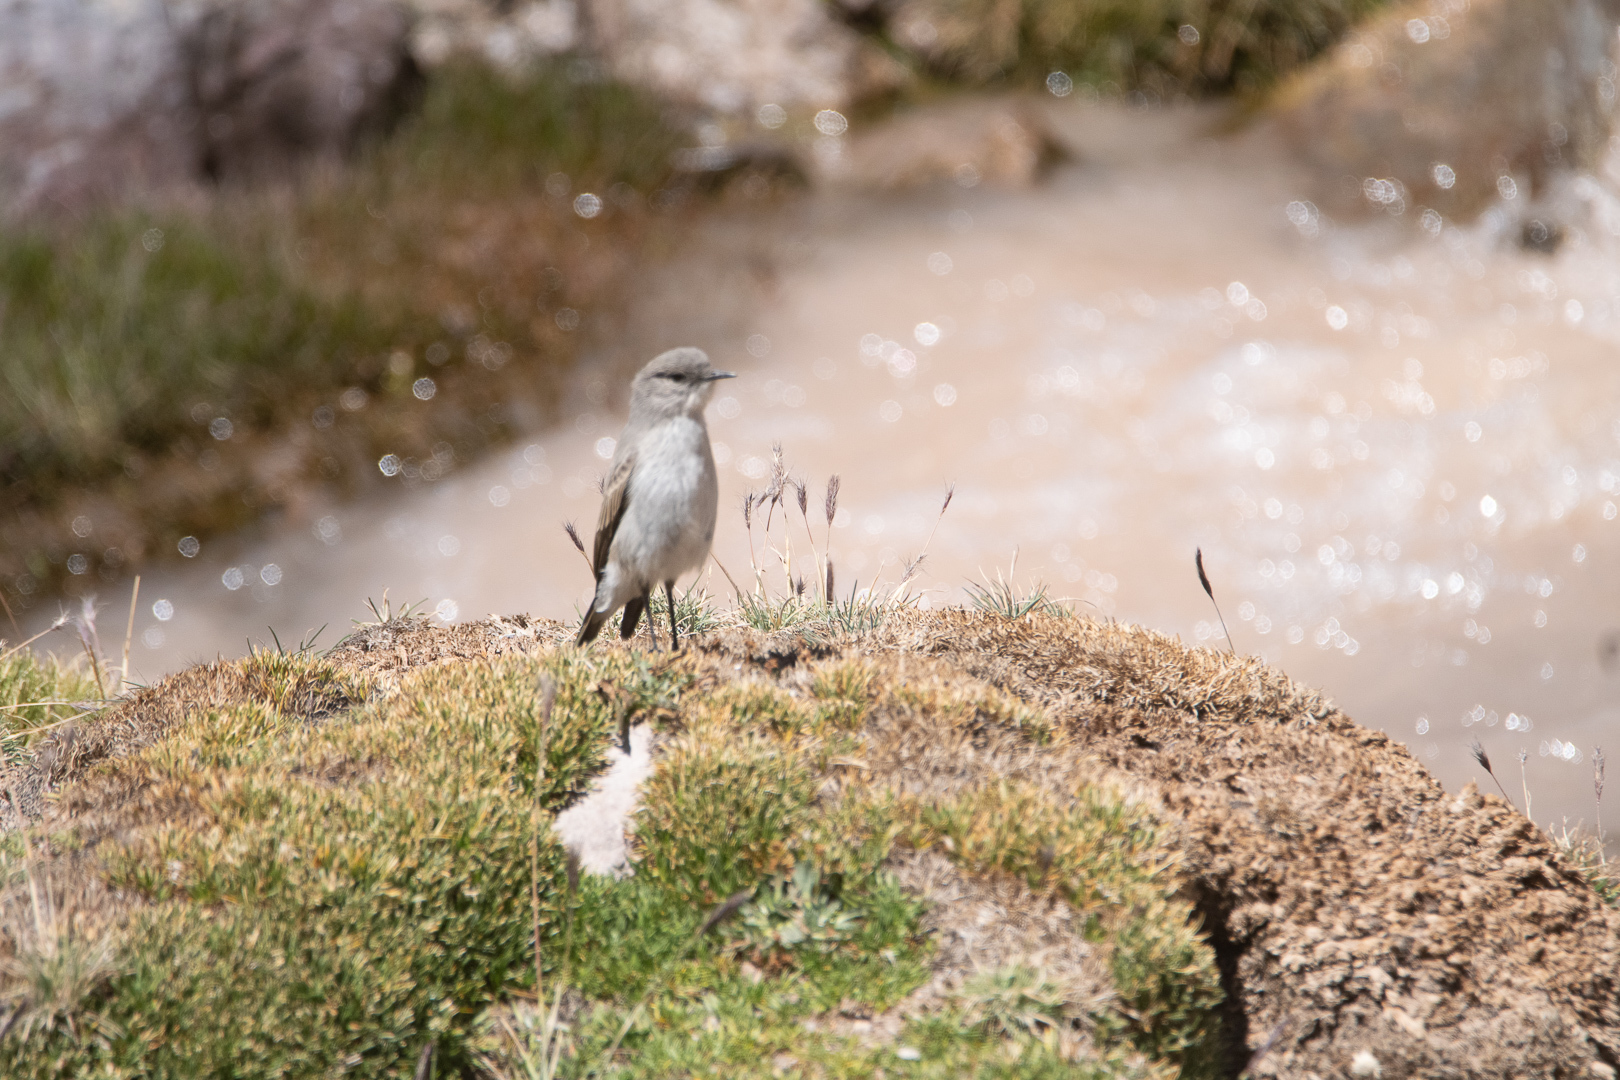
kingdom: Animalia
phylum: Chordata
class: Aves
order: Passeriformes
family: Tyrannidae
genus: Muscisaxicola
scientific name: Muscisaxicola cinereus
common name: Cinereous ground tyrant
